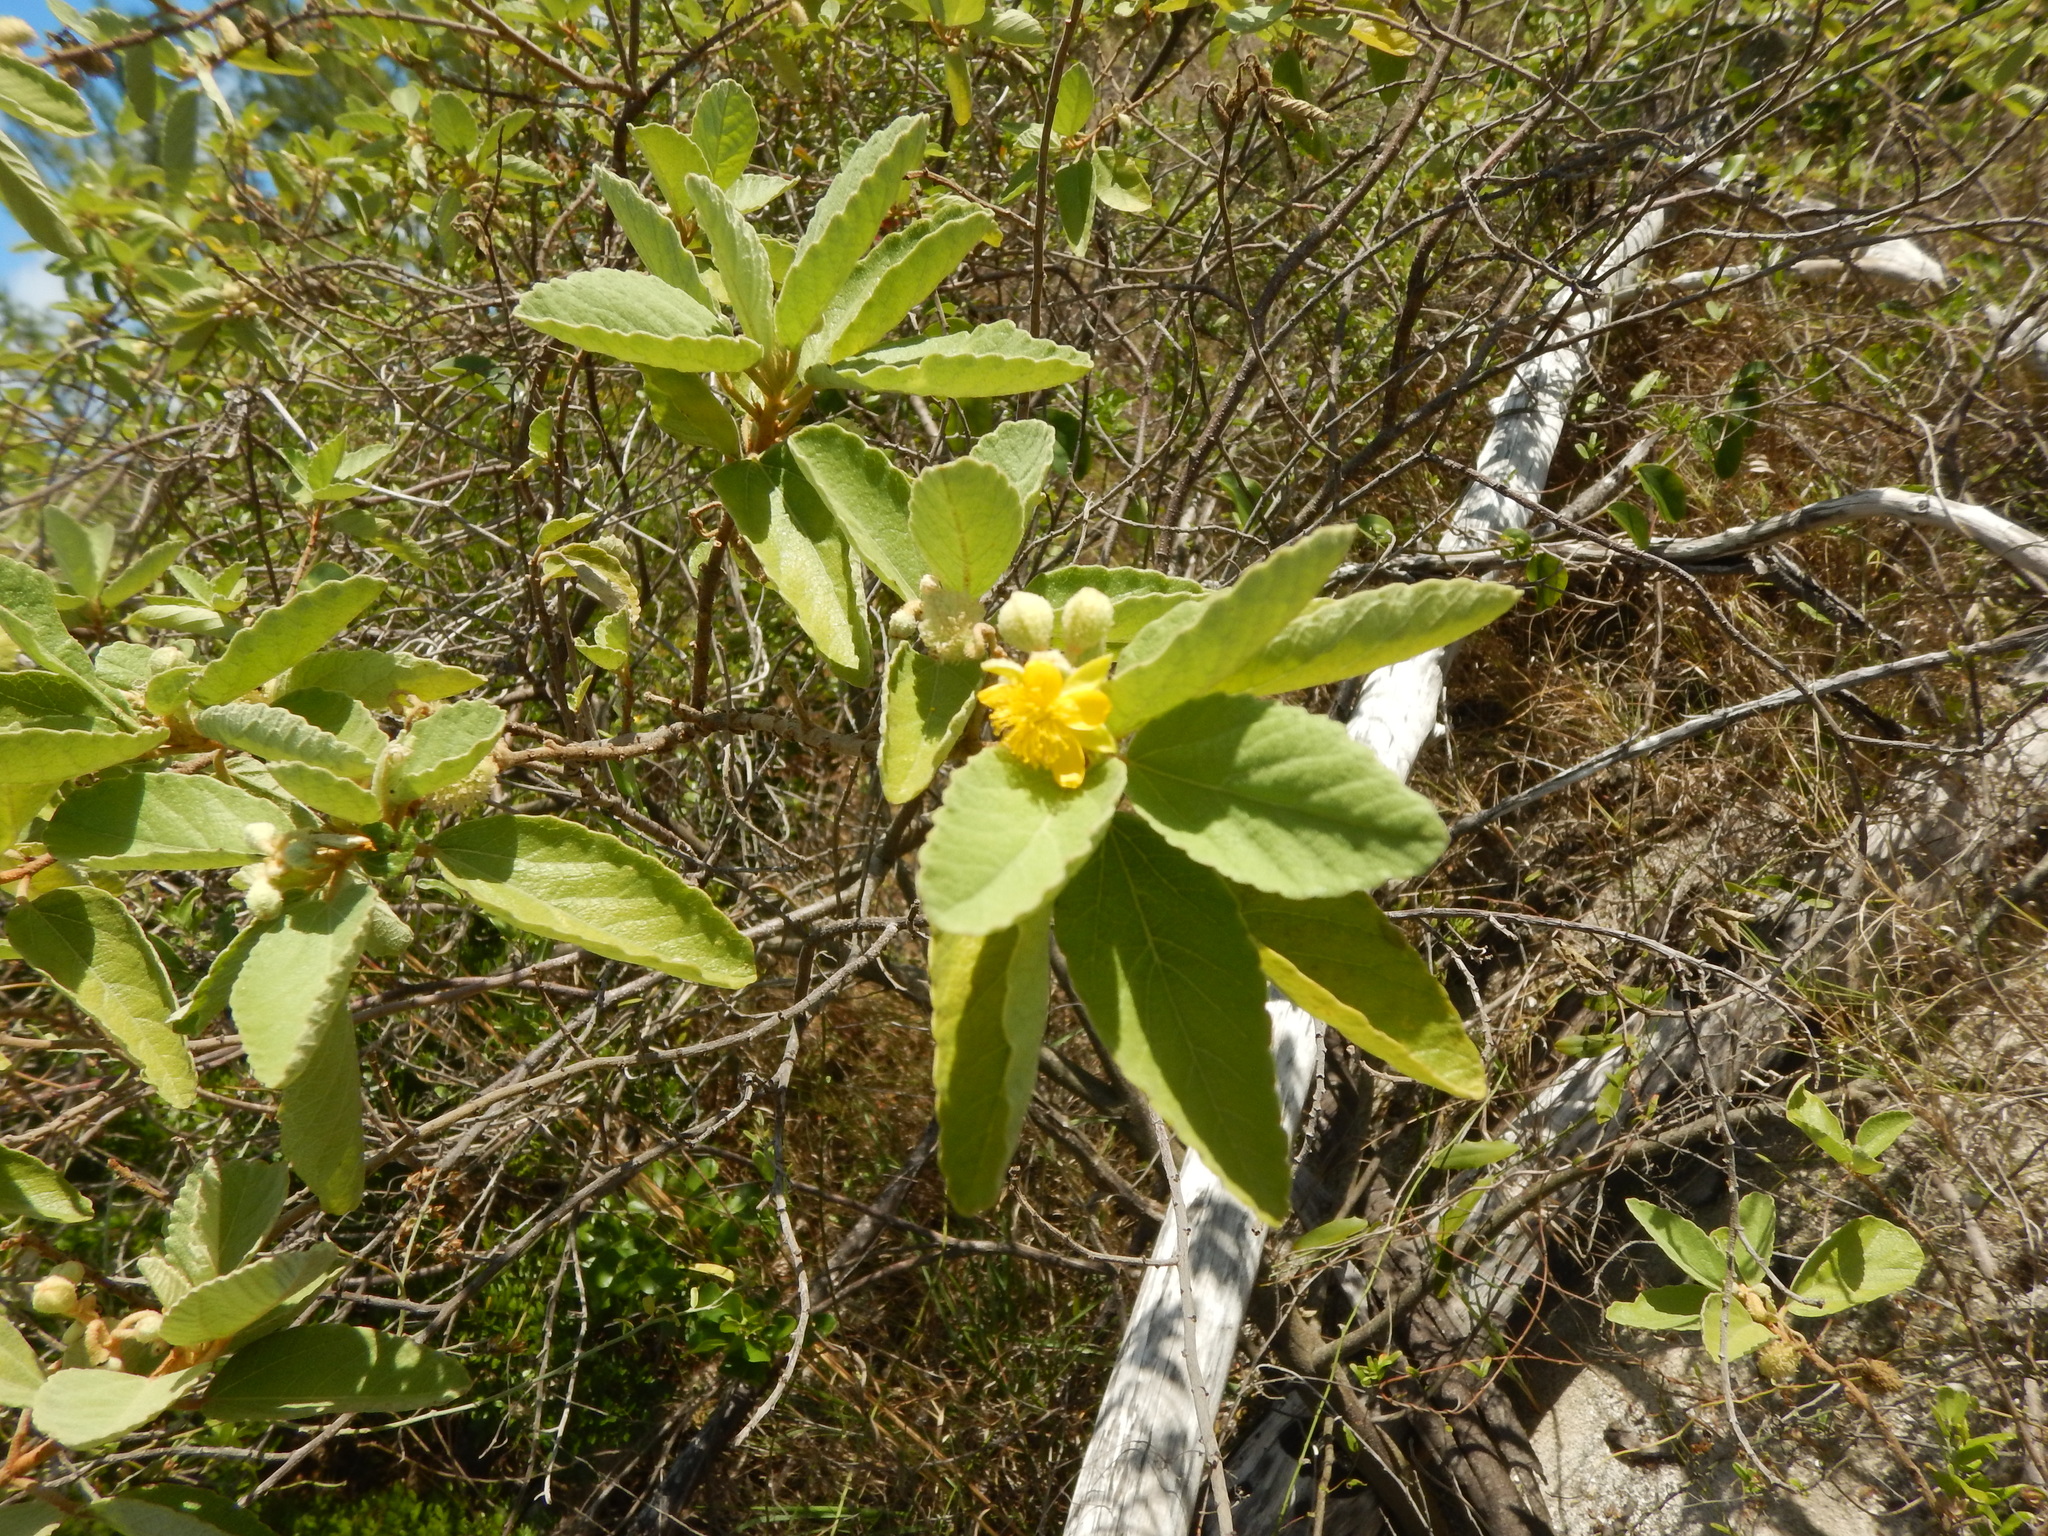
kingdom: Plantae
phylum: Tracheophyta
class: Magnoliopsida
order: Malvales
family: Malvaceae
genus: Corchorus
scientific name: Corchorus hirsutus
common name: Jackswitch
